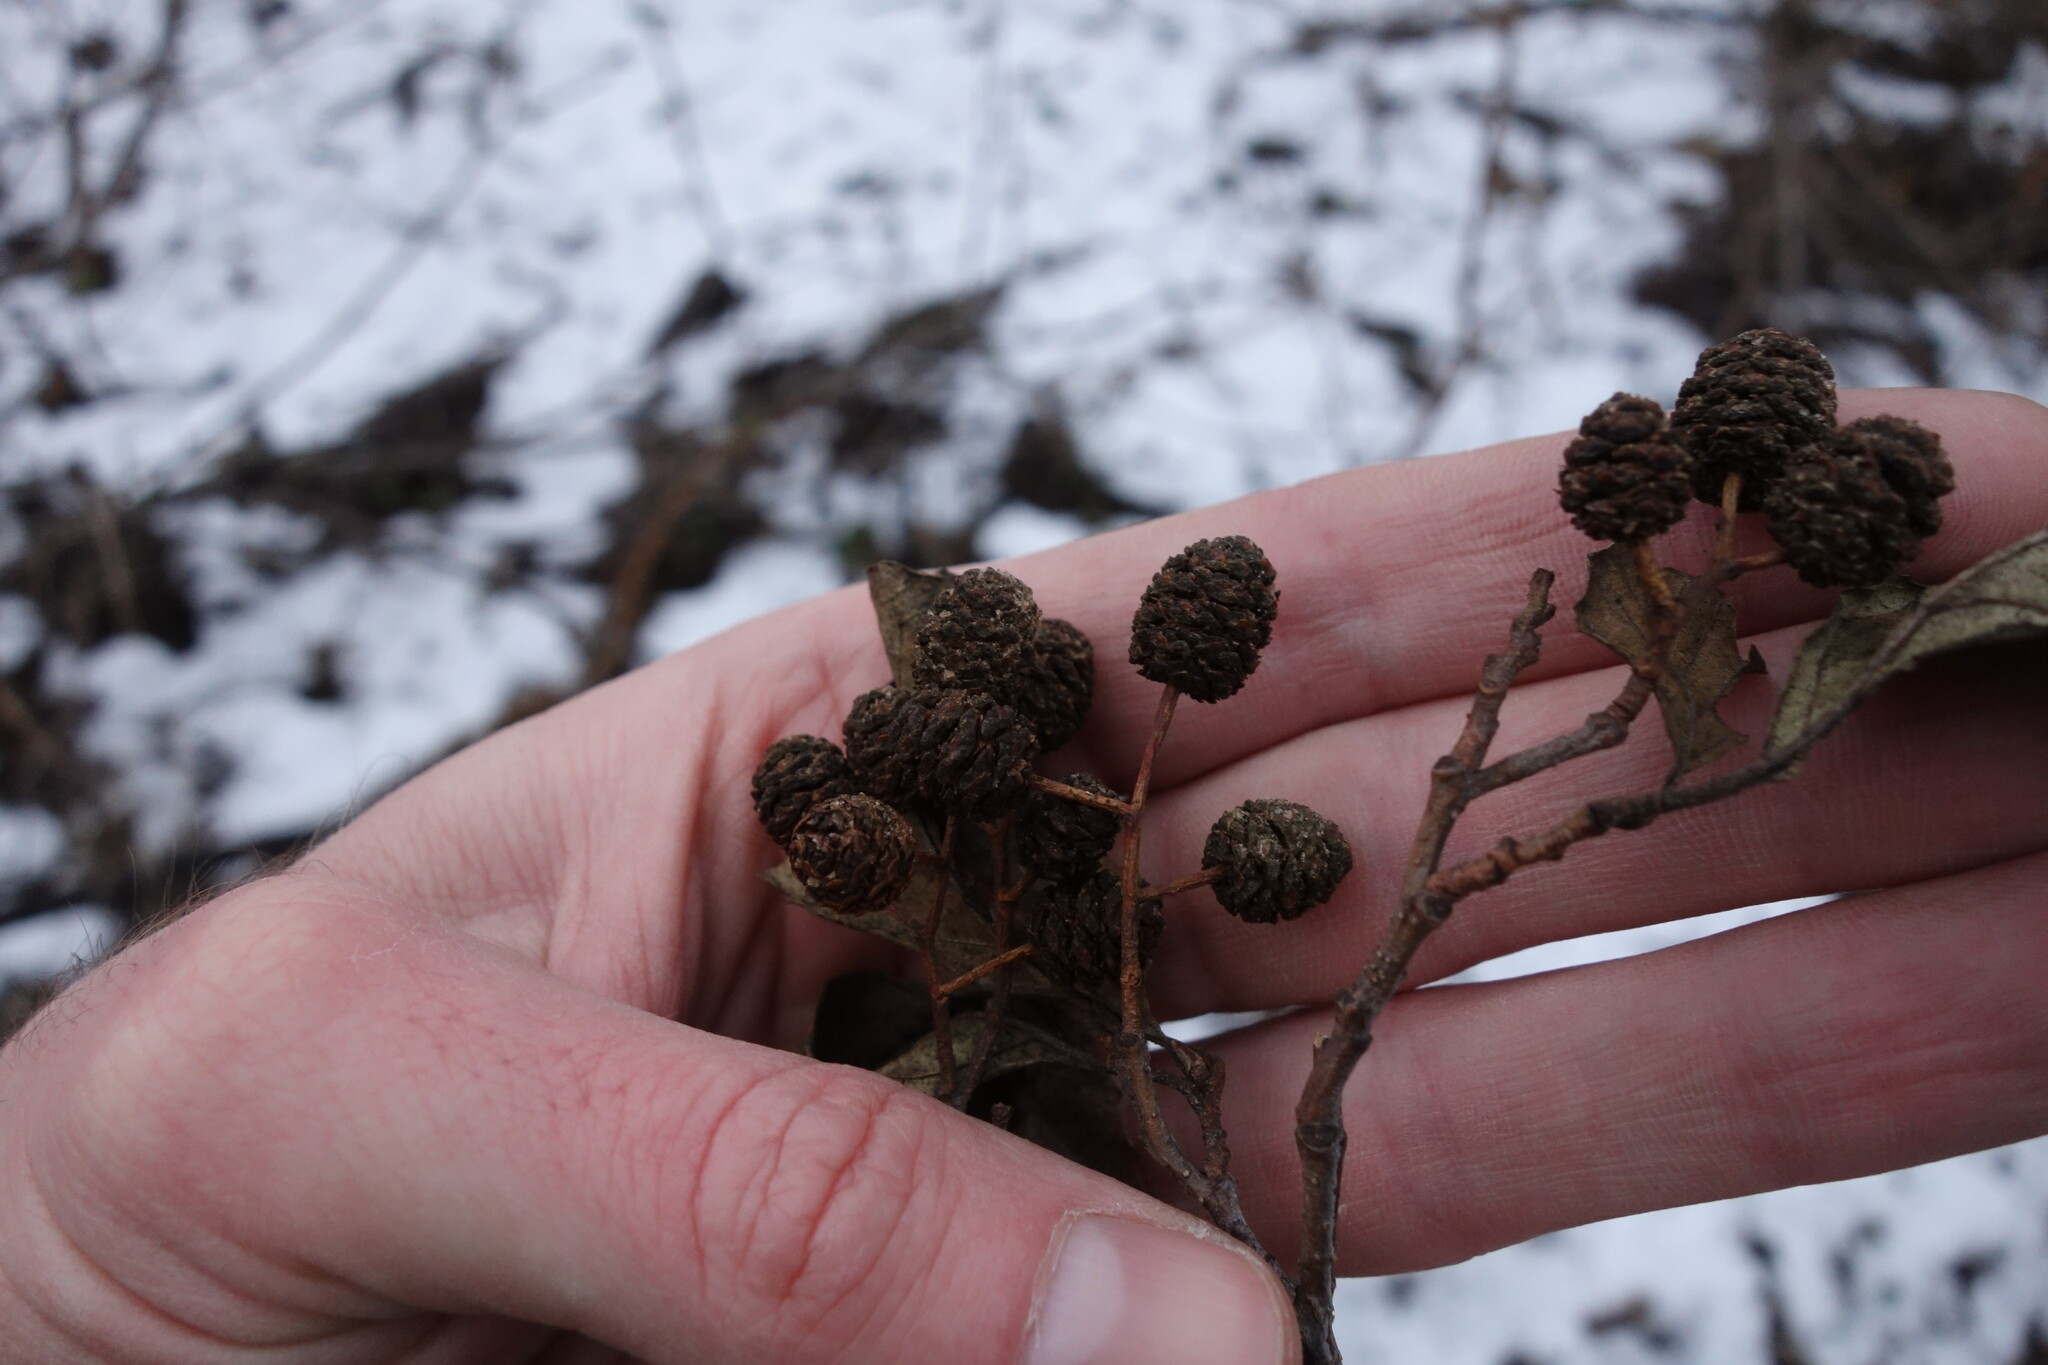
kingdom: Plantae
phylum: Tracheophyta
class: Magnoliopsida
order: Fagales
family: Betulaceae
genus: Alnus
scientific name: Alnus glutinosa
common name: Black alder
